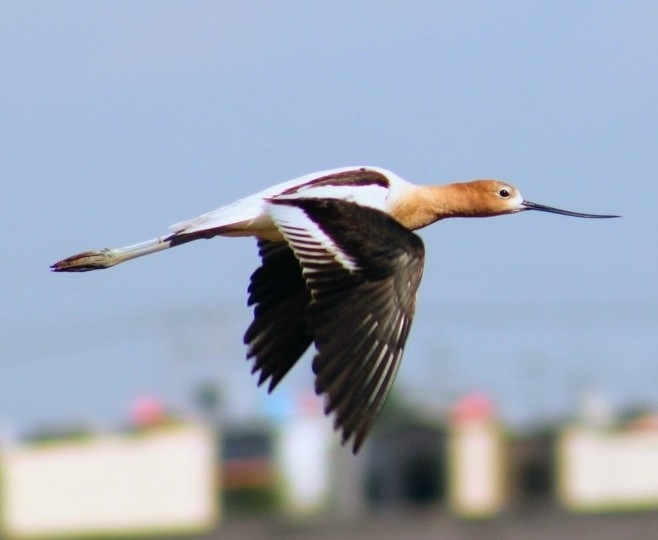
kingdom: Animalia
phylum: Chordata
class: Aves
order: Charadriiformes
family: Recurvirostridae
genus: Recurvirostra
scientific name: Recurvirostra americana
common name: American avocet
